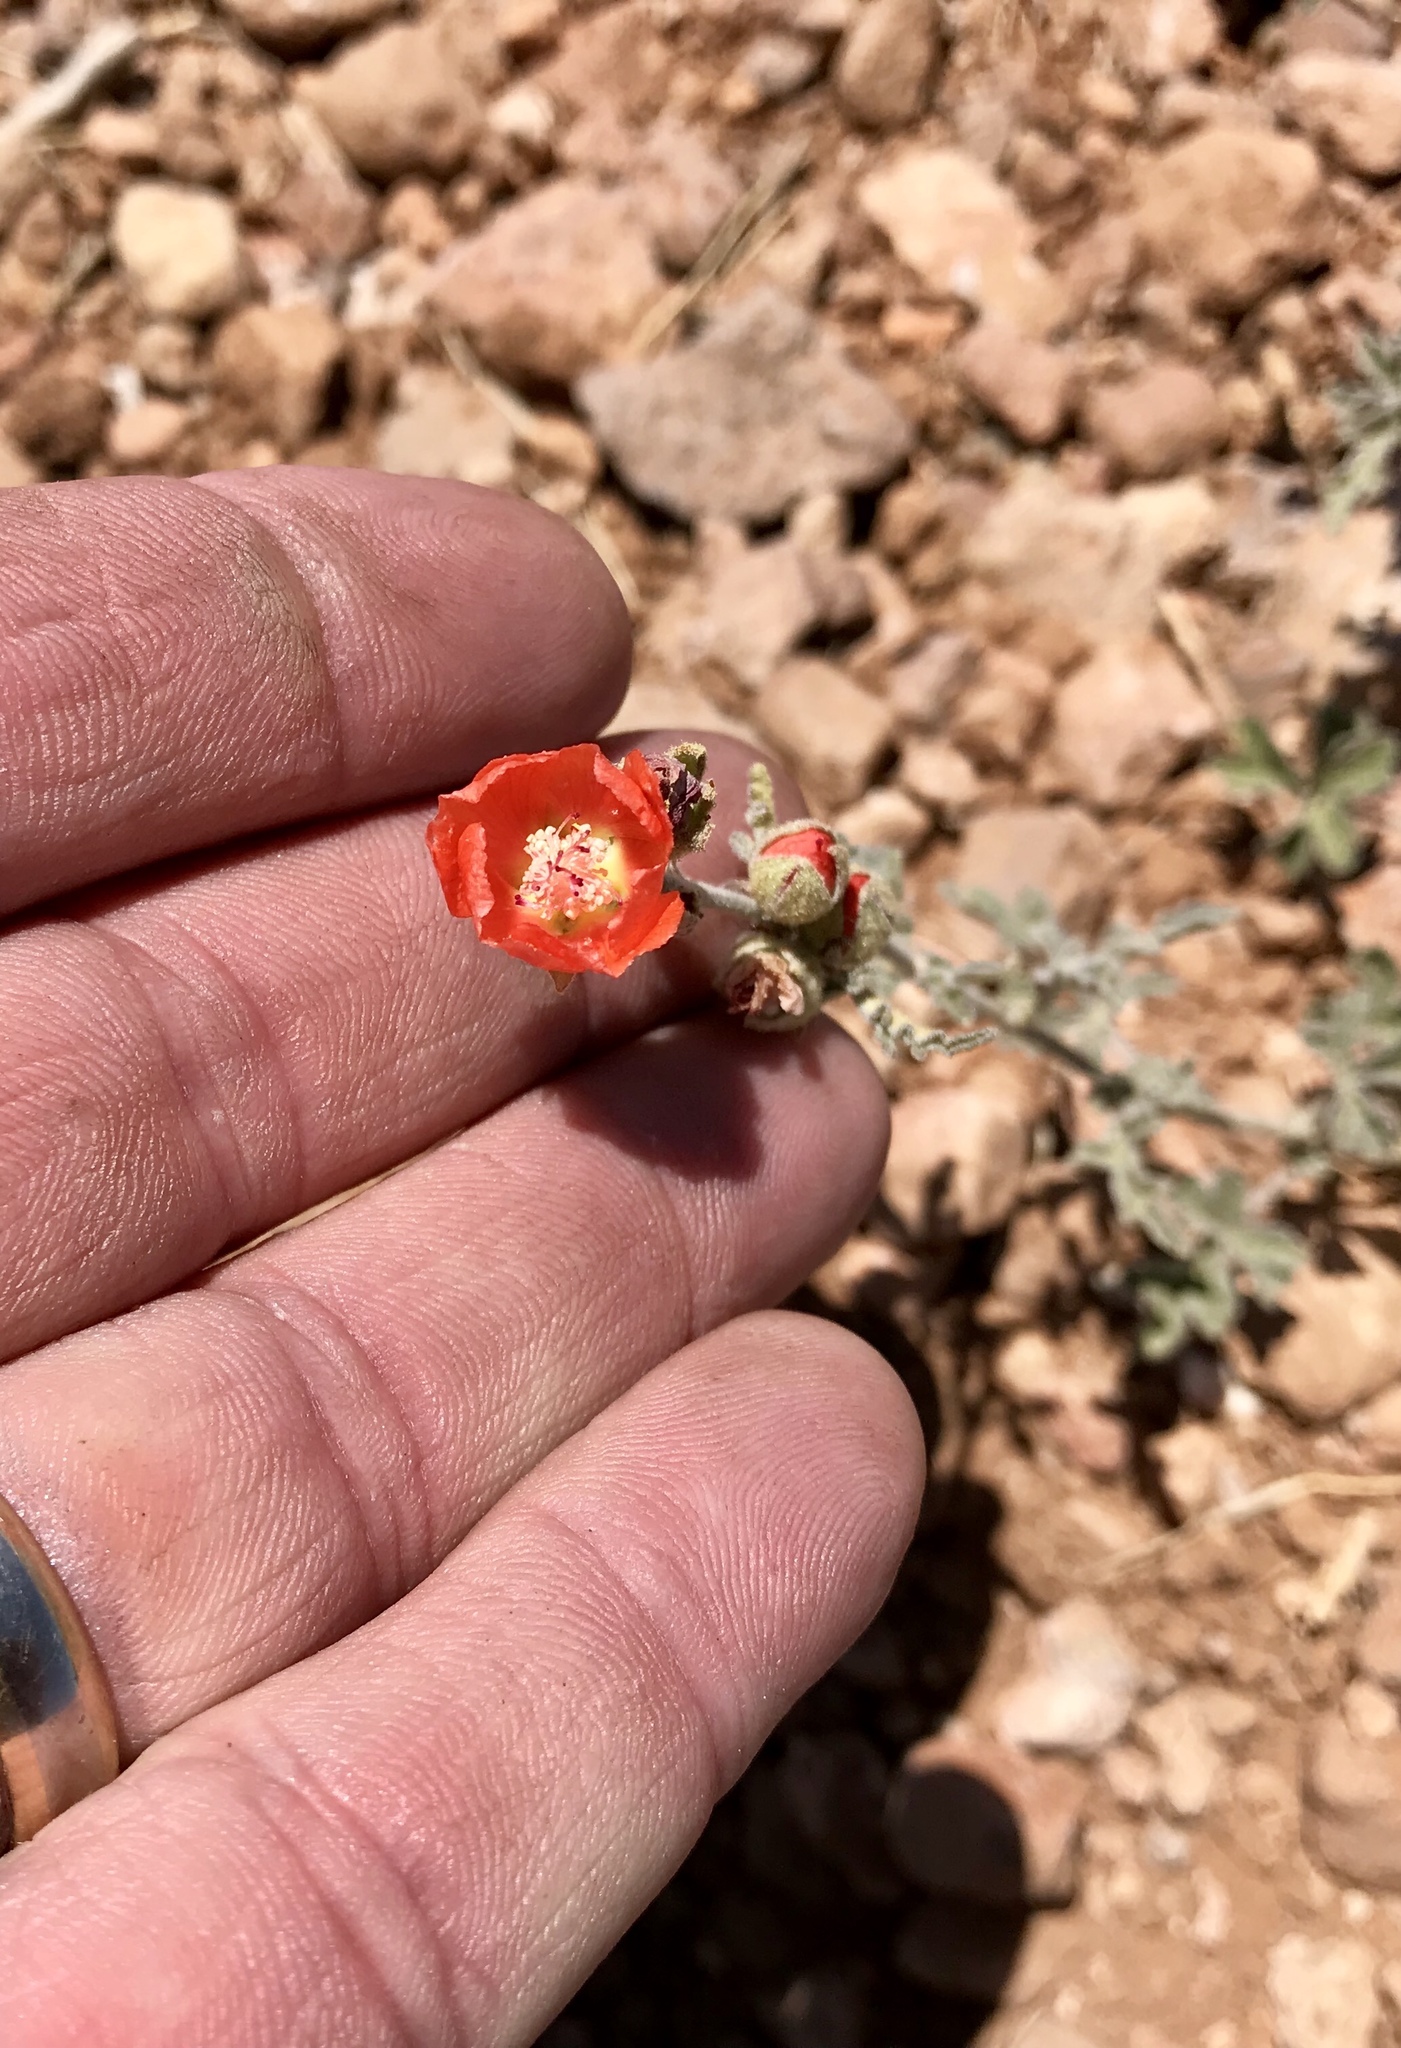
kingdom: Plantae
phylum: Tracheophyta
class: Magnoliopsida
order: Malvales
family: Malvaceae
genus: Sphaeralcea
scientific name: Sphaeralcea hastulata
